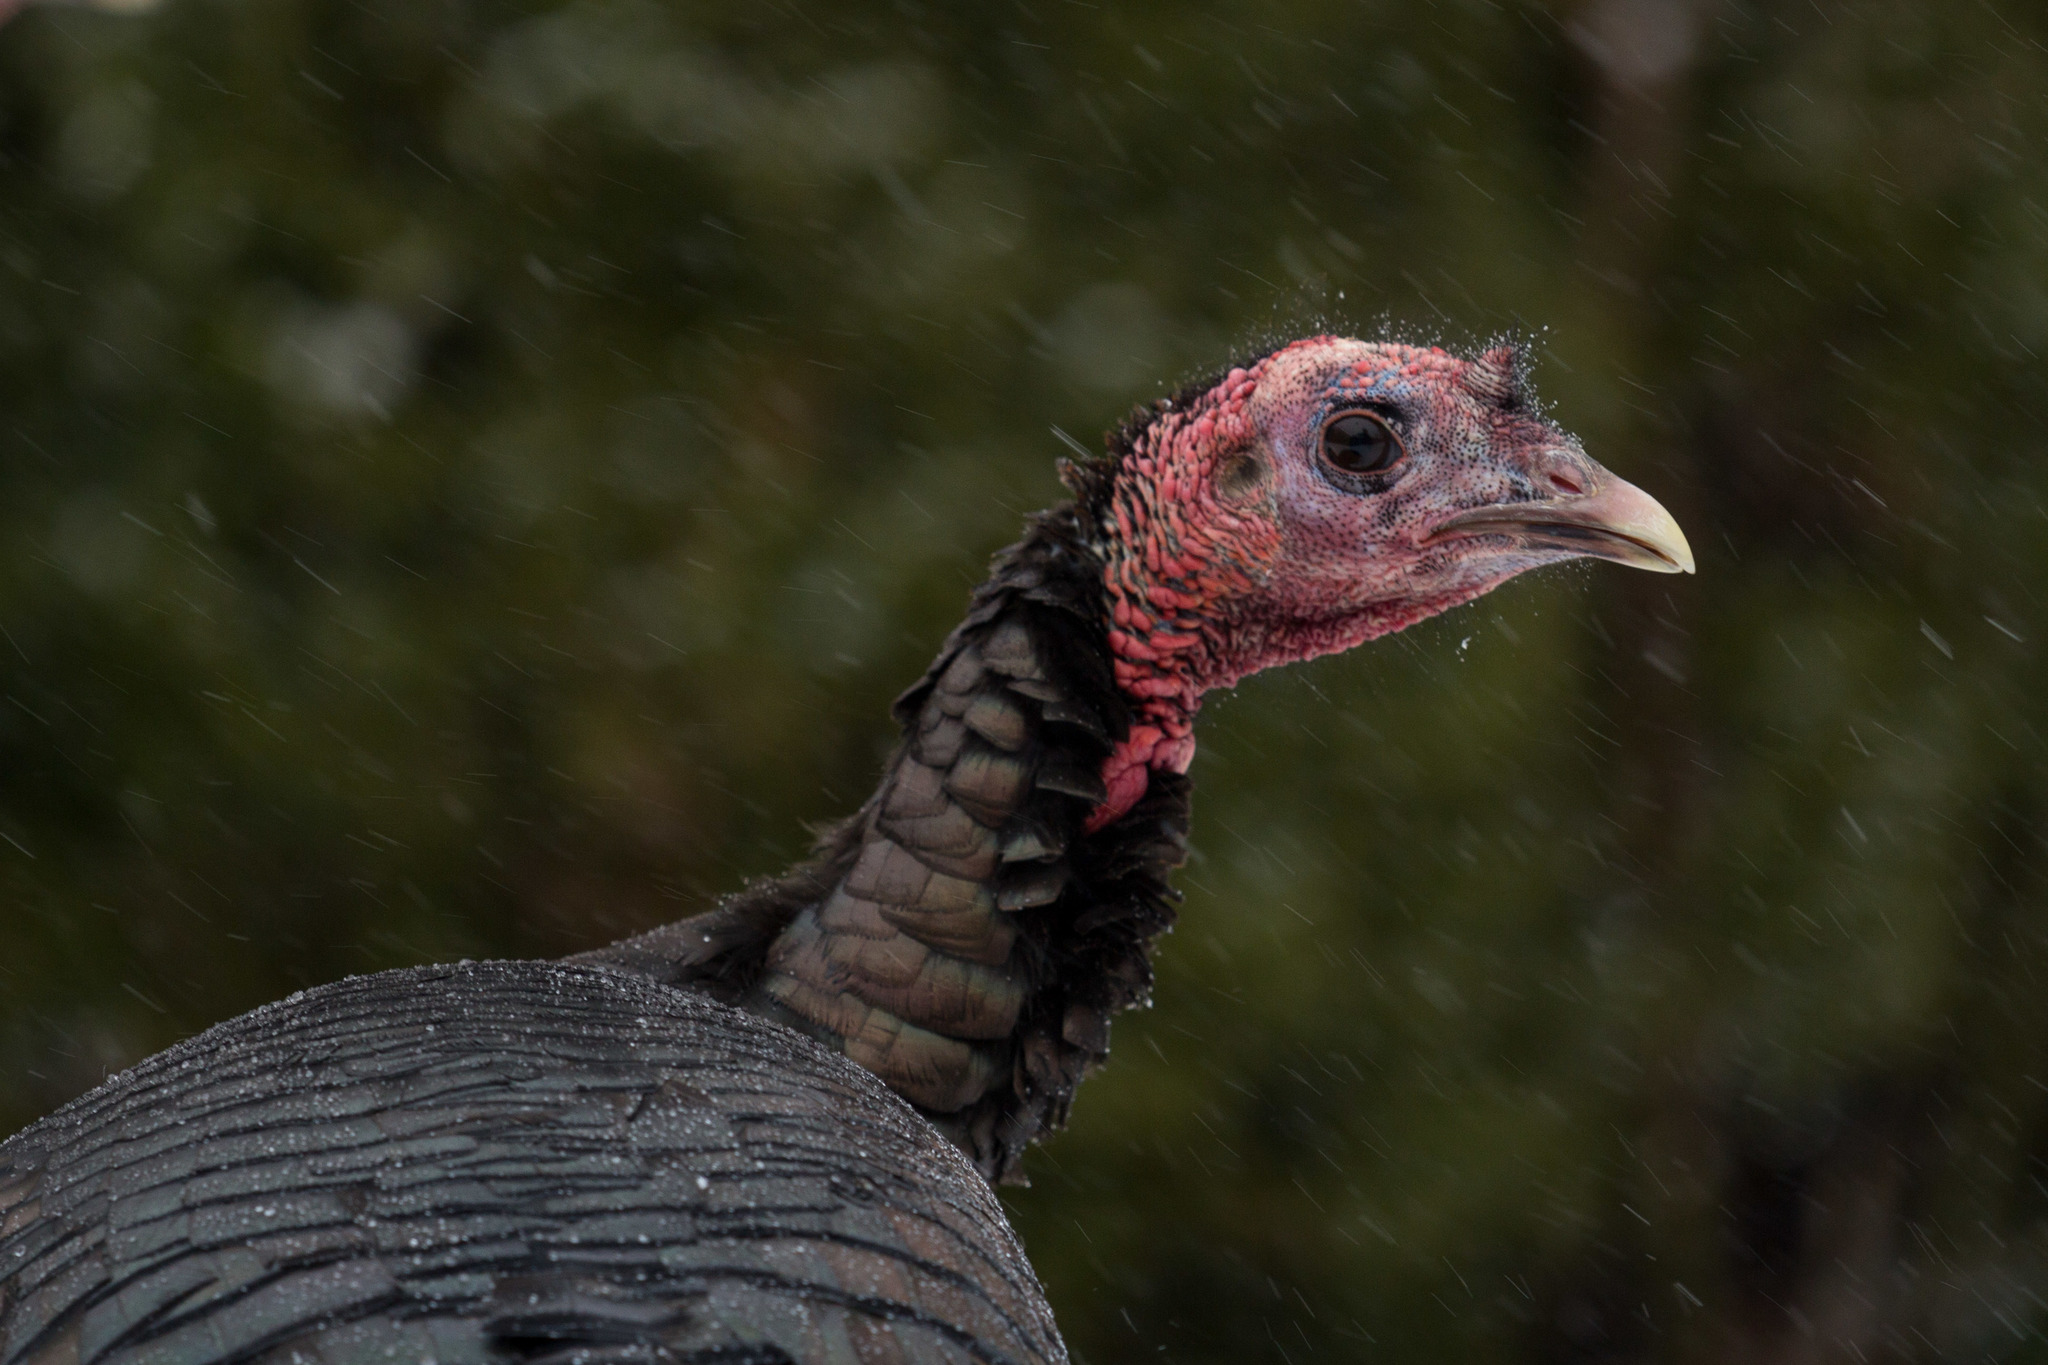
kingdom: Animalia
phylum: Chordata
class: Aves
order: Galliformes
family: Phasianidae
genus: Meleagris
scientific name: Meleagris gallopavo
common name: Wild turkey
